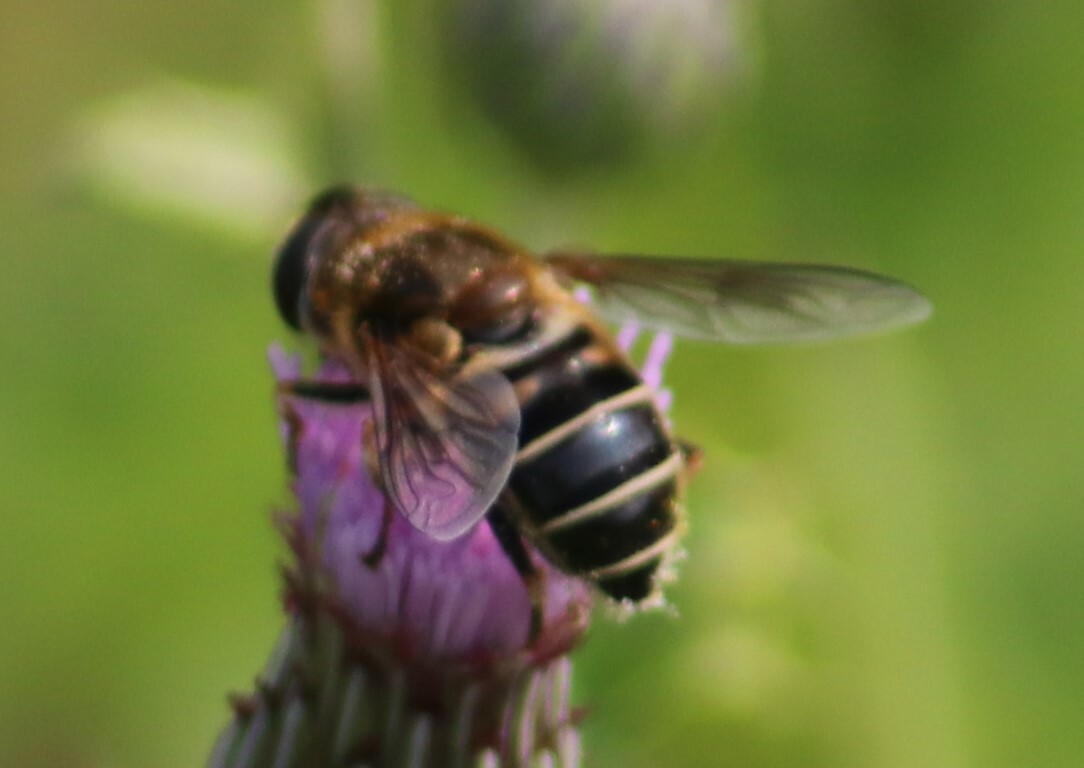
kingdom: Animalia
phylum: Arthropoda
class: Insecta
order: Diptera
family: Syrphidae
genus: Eristalis
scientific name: Eristalis nemorum
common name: Orange-spined drone fly
